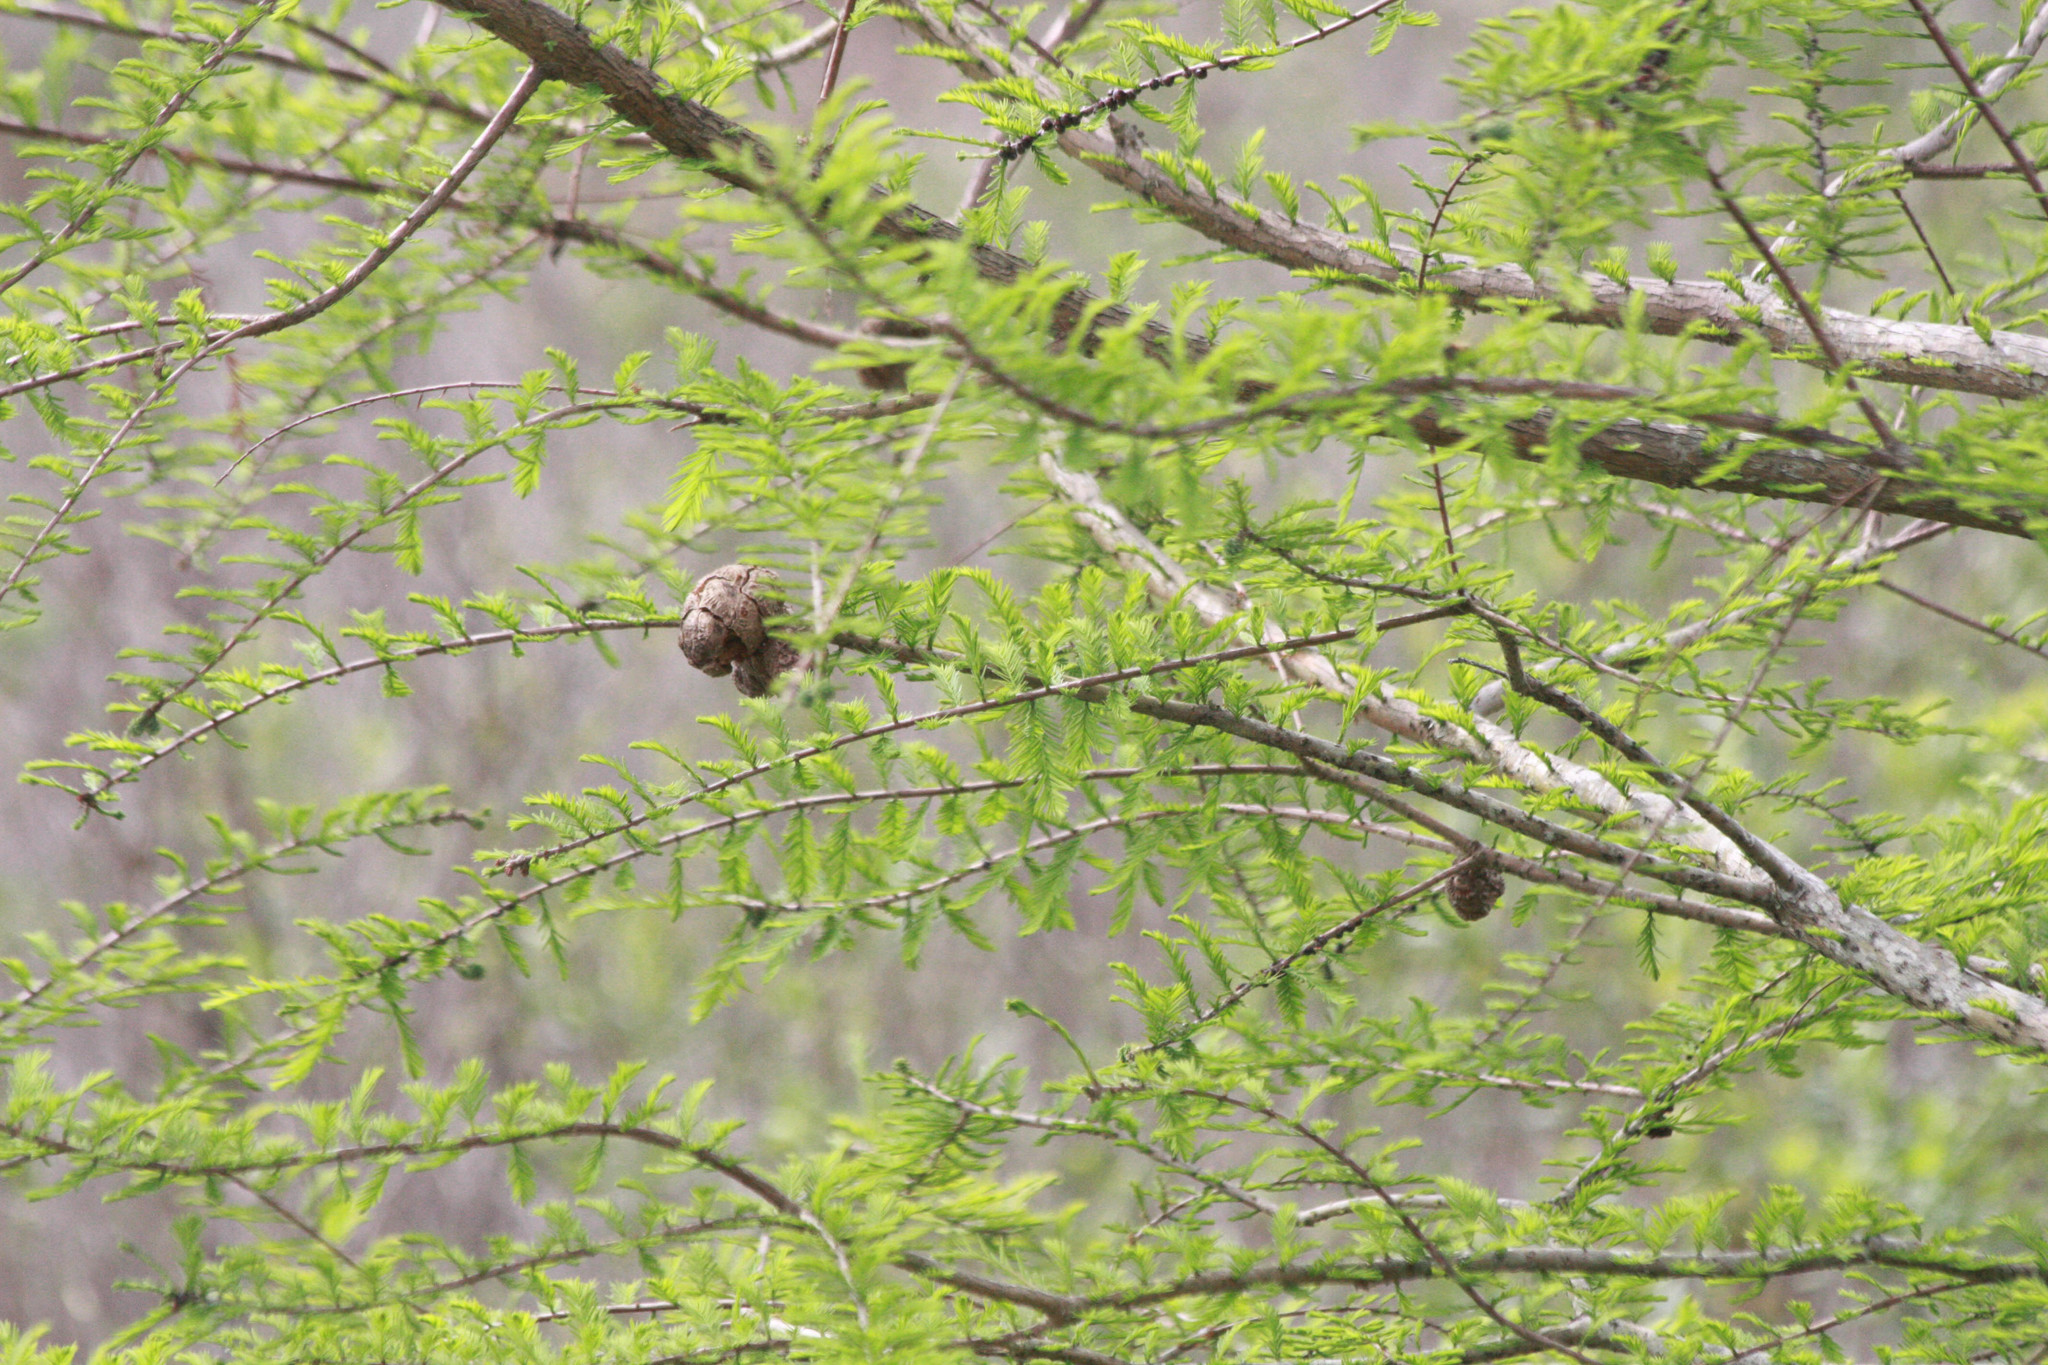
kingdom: Plantae
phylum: Tracheophyta
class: Pinopsida
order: Pinales
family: Cupressaceae
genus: Taxodium
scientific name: Taxodium distichum
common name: Bald cypress
